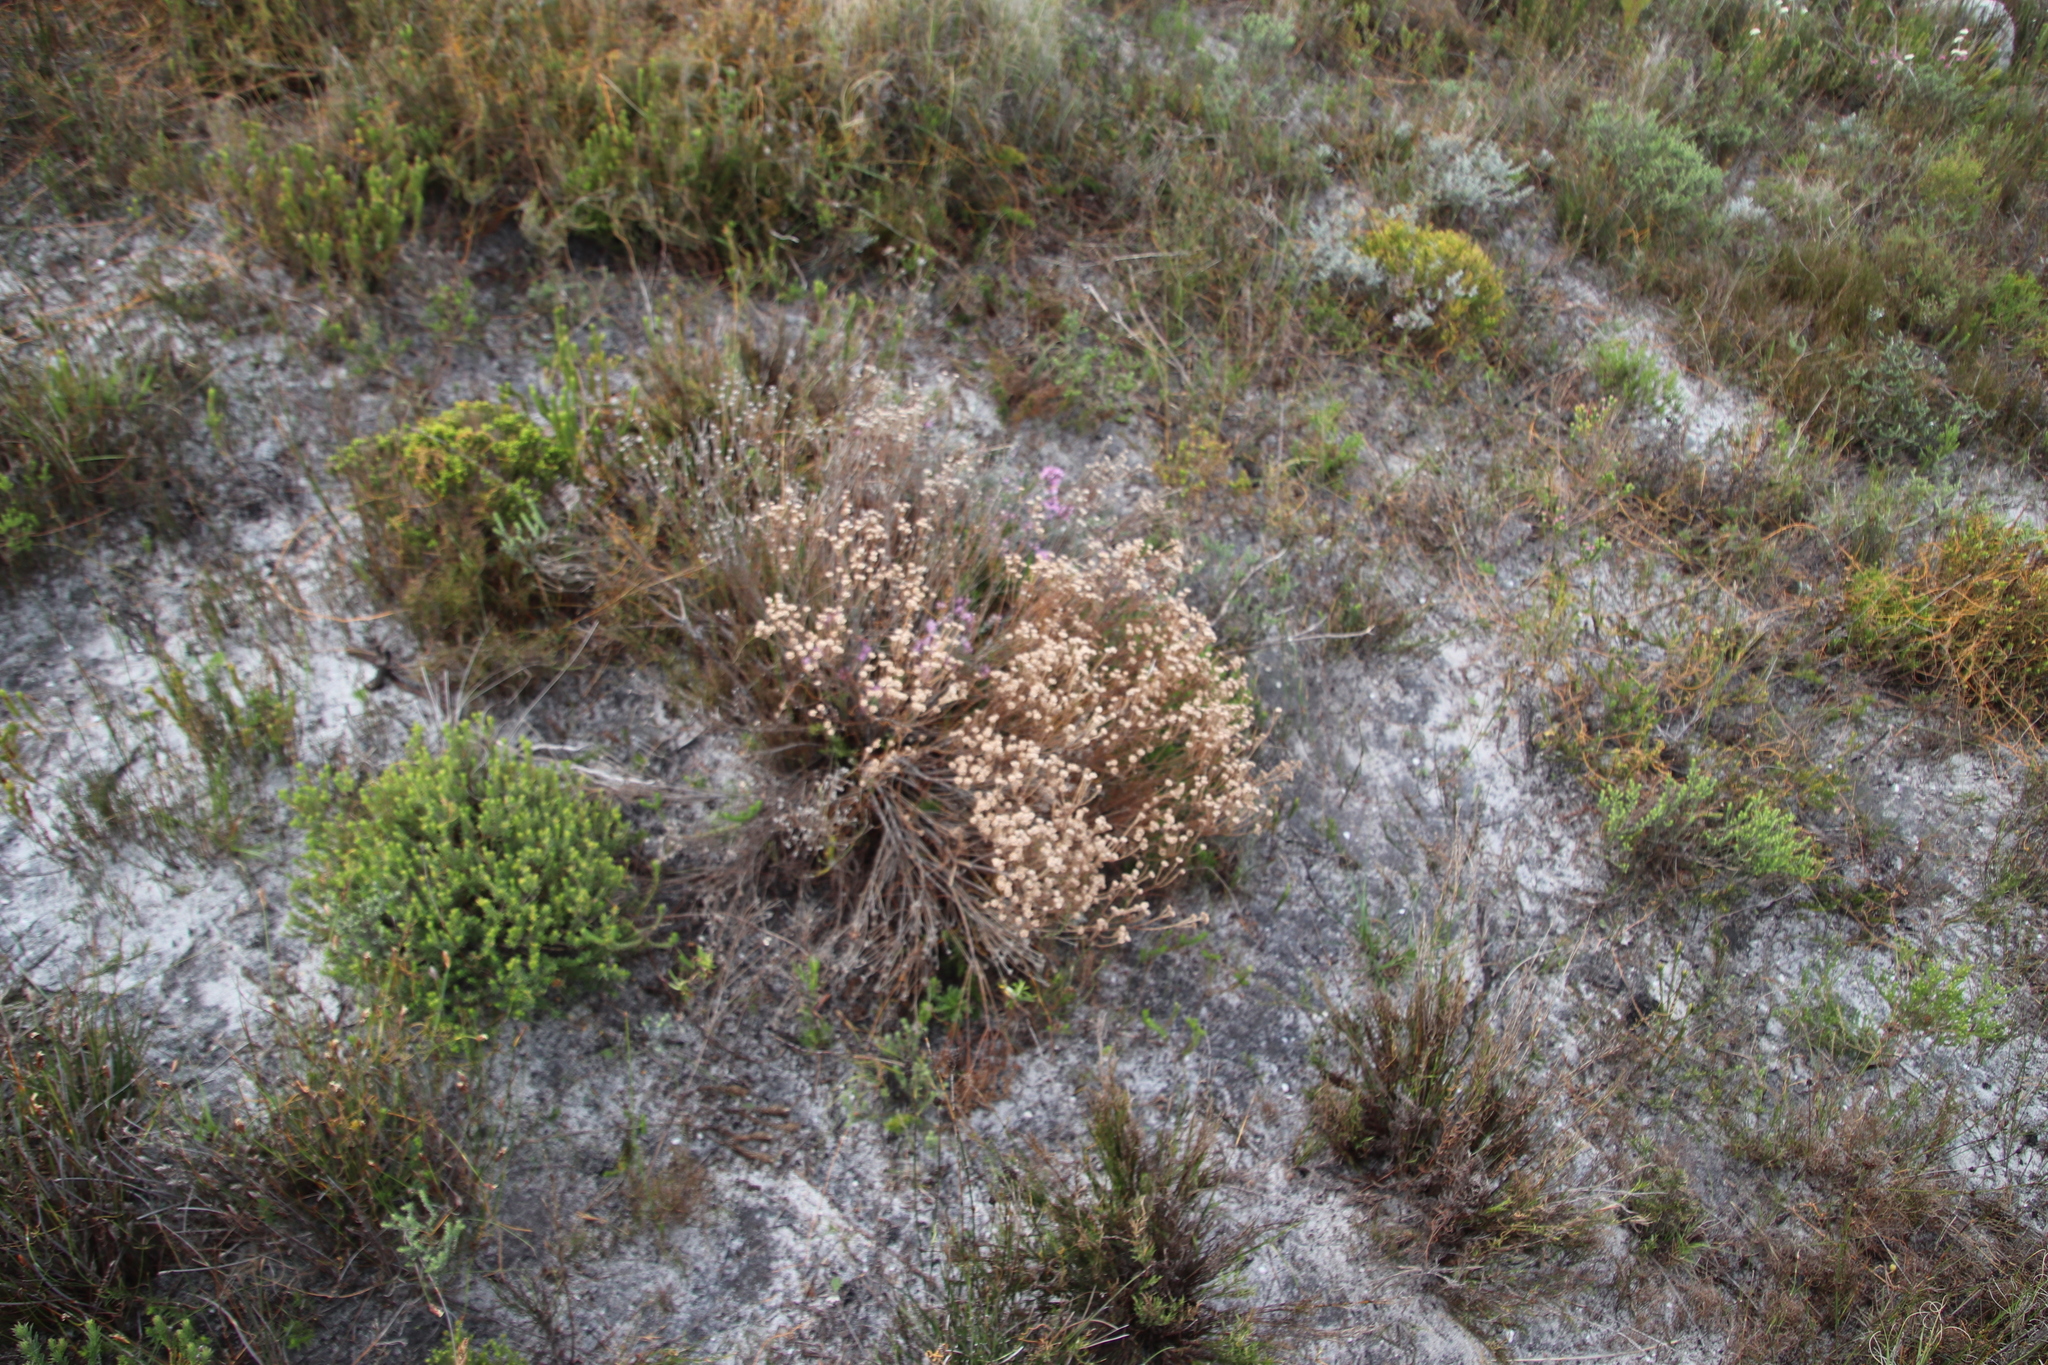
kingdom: Plantae
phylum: Tracheophyta
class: Magnoliopsida
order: Bruniales
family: Bruniaceae
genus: Staavia
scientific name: Staavia radiata
